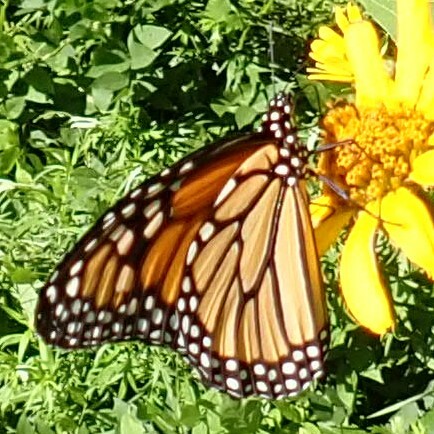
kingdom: Animalia
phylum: Arthropoda
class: Insecta
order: Lepidoptera
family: Nymphalidae
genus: Danaus
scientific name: Danaus plexippus
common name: Monarch
